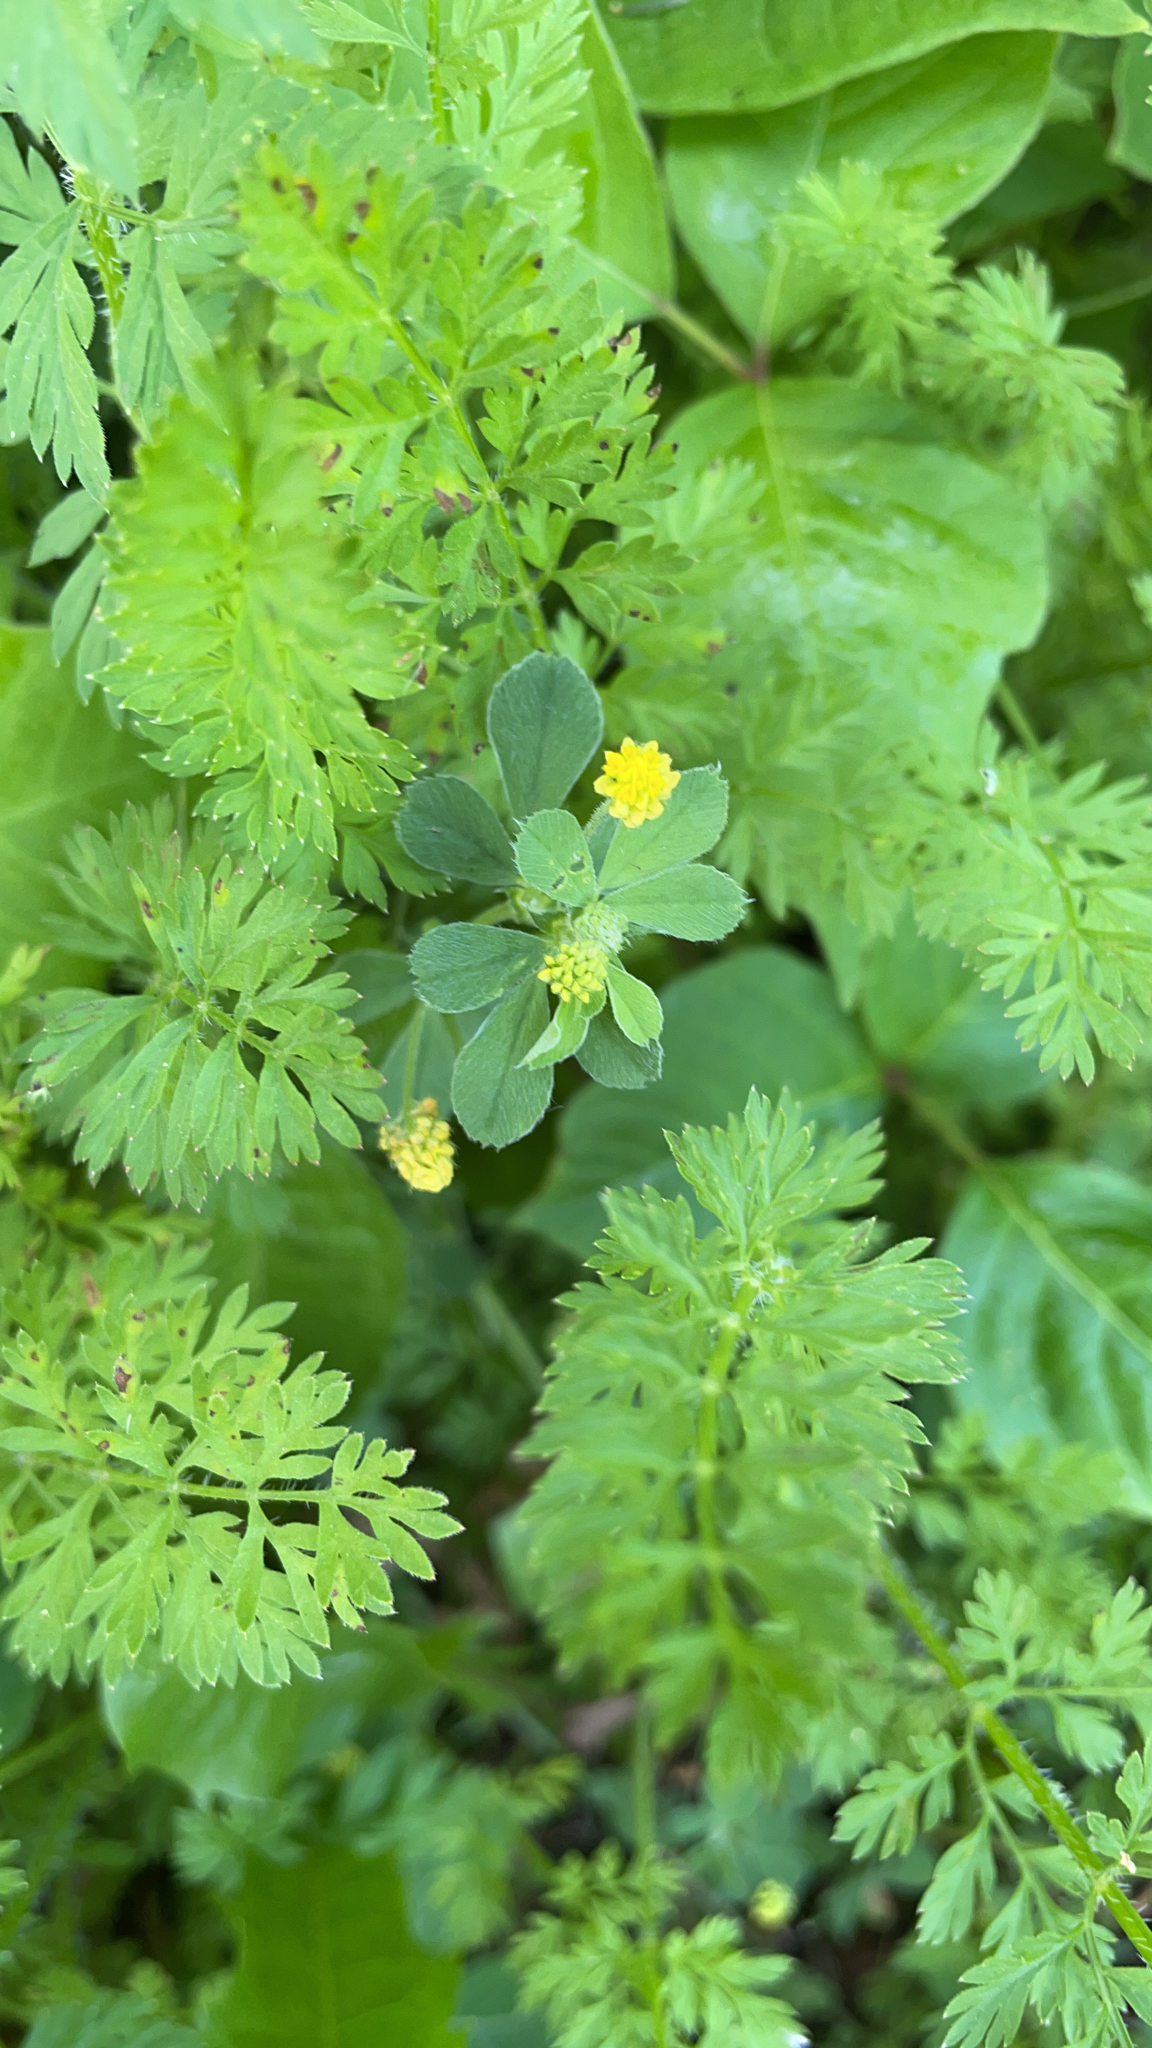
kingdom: Plantae
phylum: Tracheophyta
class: Magnoliopsida
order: Fabales
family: Fabaceae
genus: Medicago
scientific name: Medicago lupulina
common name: Black medick
